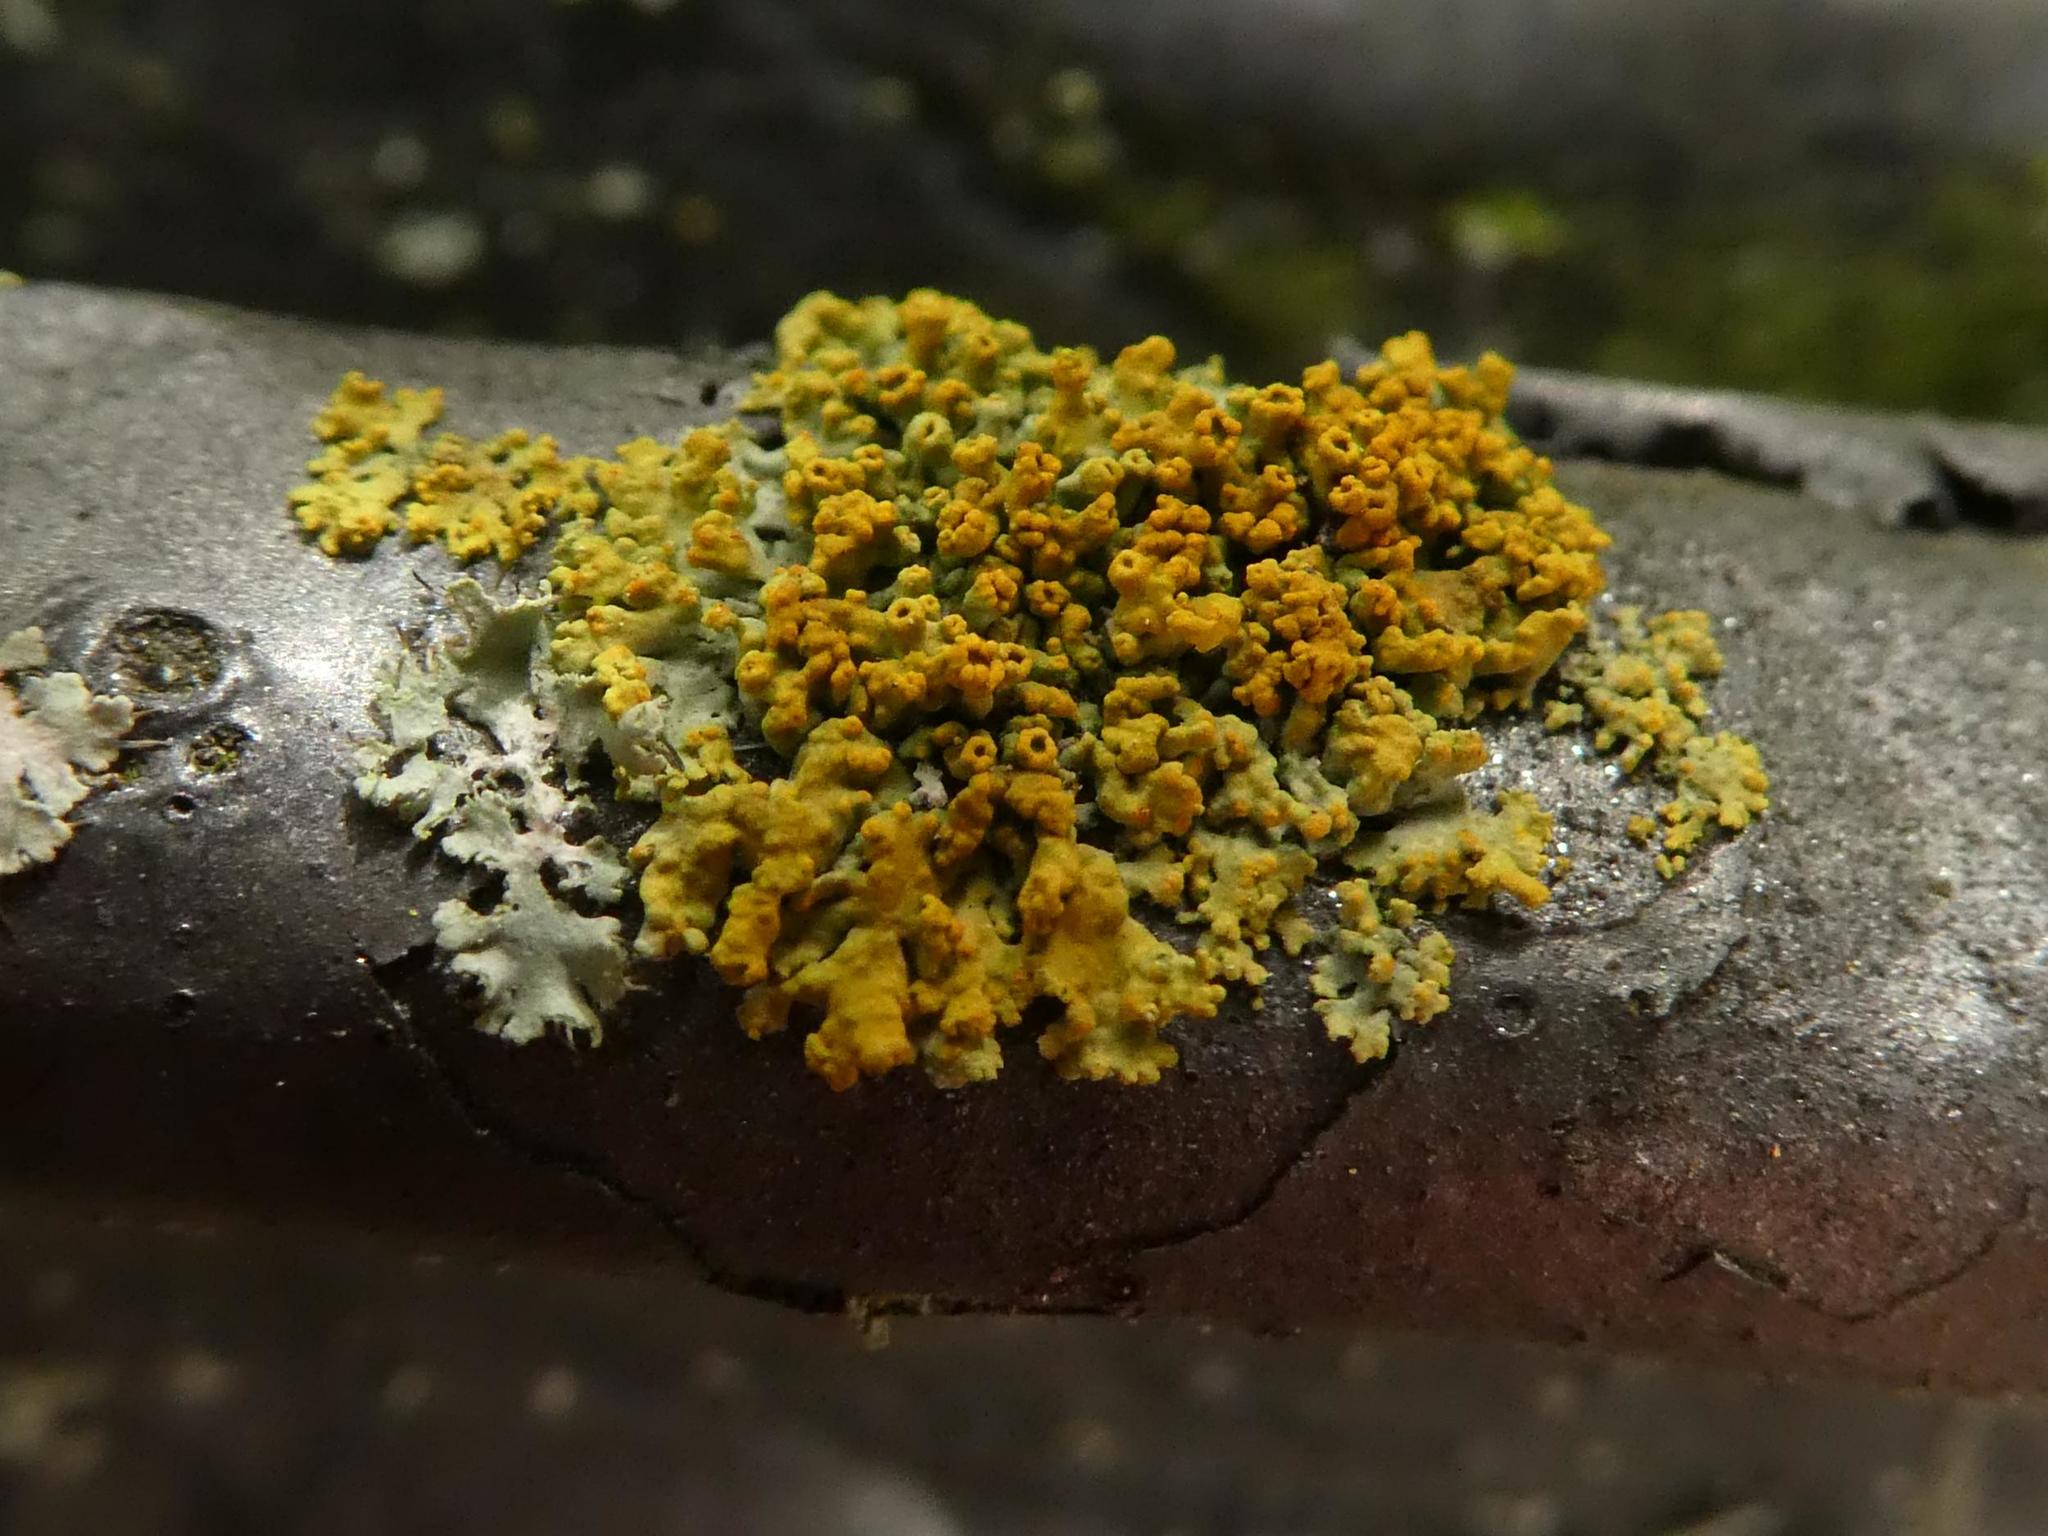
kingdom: Fungi
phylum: Ascomycota
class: Lecanoromycetes
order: Teloschistales
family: Teloschistaceae
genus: Polycauliona
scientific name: Polycauliona polycarpa
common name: Pin-cushion sunburst lichen
